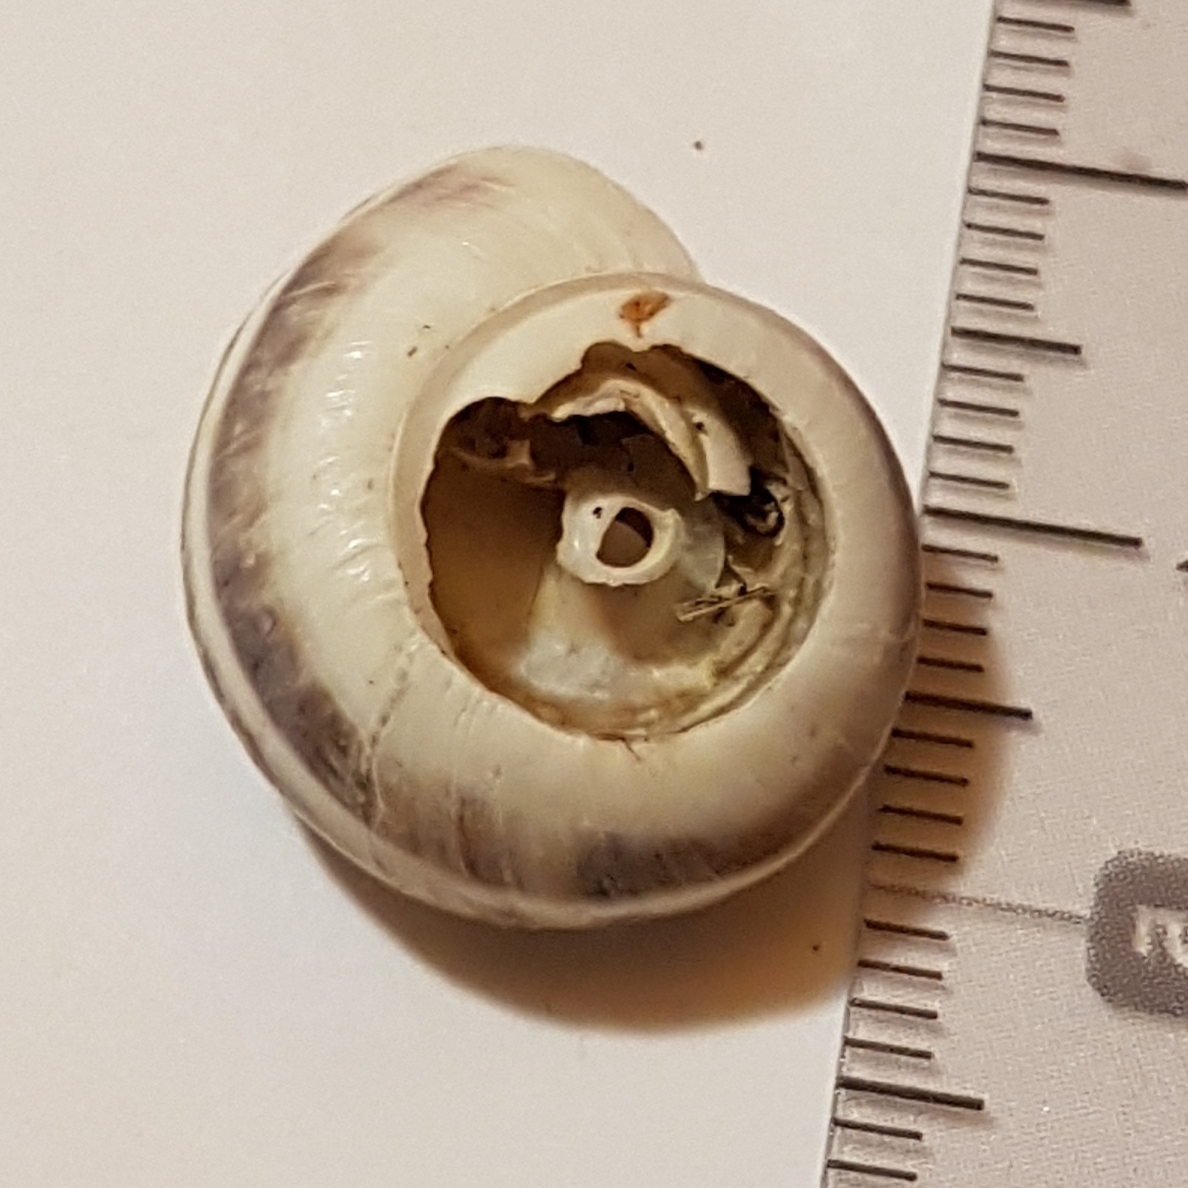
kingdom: Animalia
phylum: Mollusca
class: Gastropoda
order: Stylommatophora
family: Geomitridae
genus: Xerosecta
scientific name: Xerosecta cespitum
